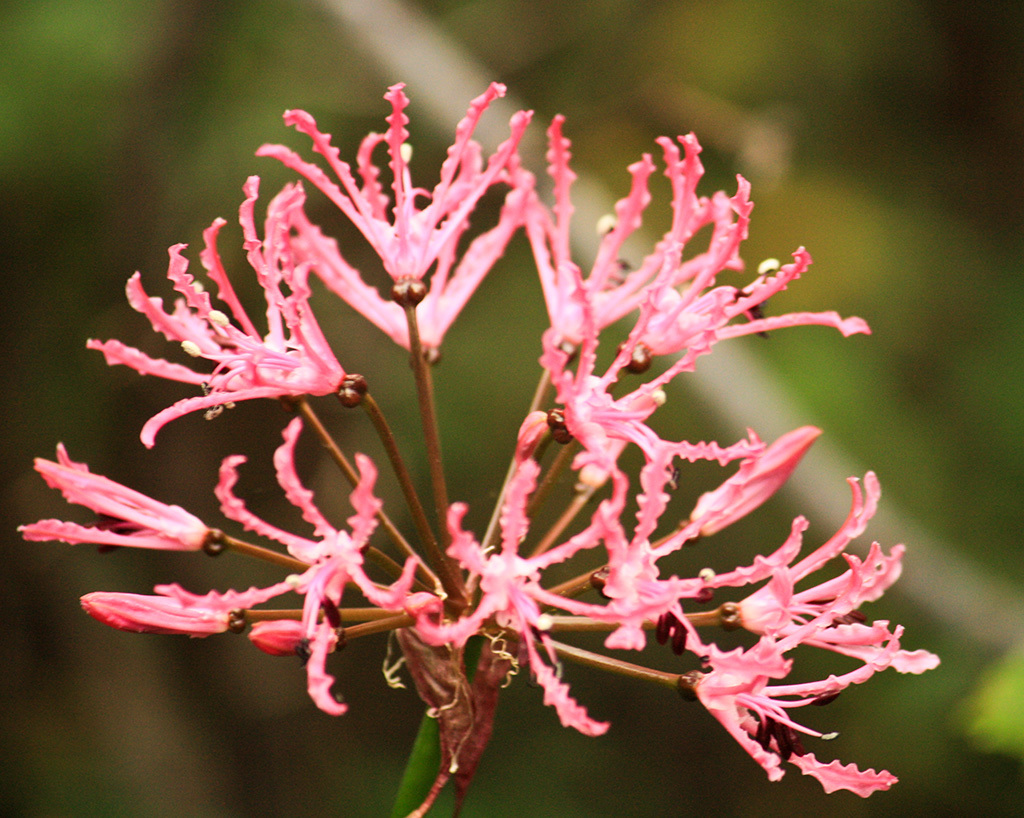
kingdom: Plantae
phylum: Tracheophyta
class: Liliopsida
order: Asparagales
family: Amaryllidaceae
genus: Nerine
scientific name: Nerine undulata
